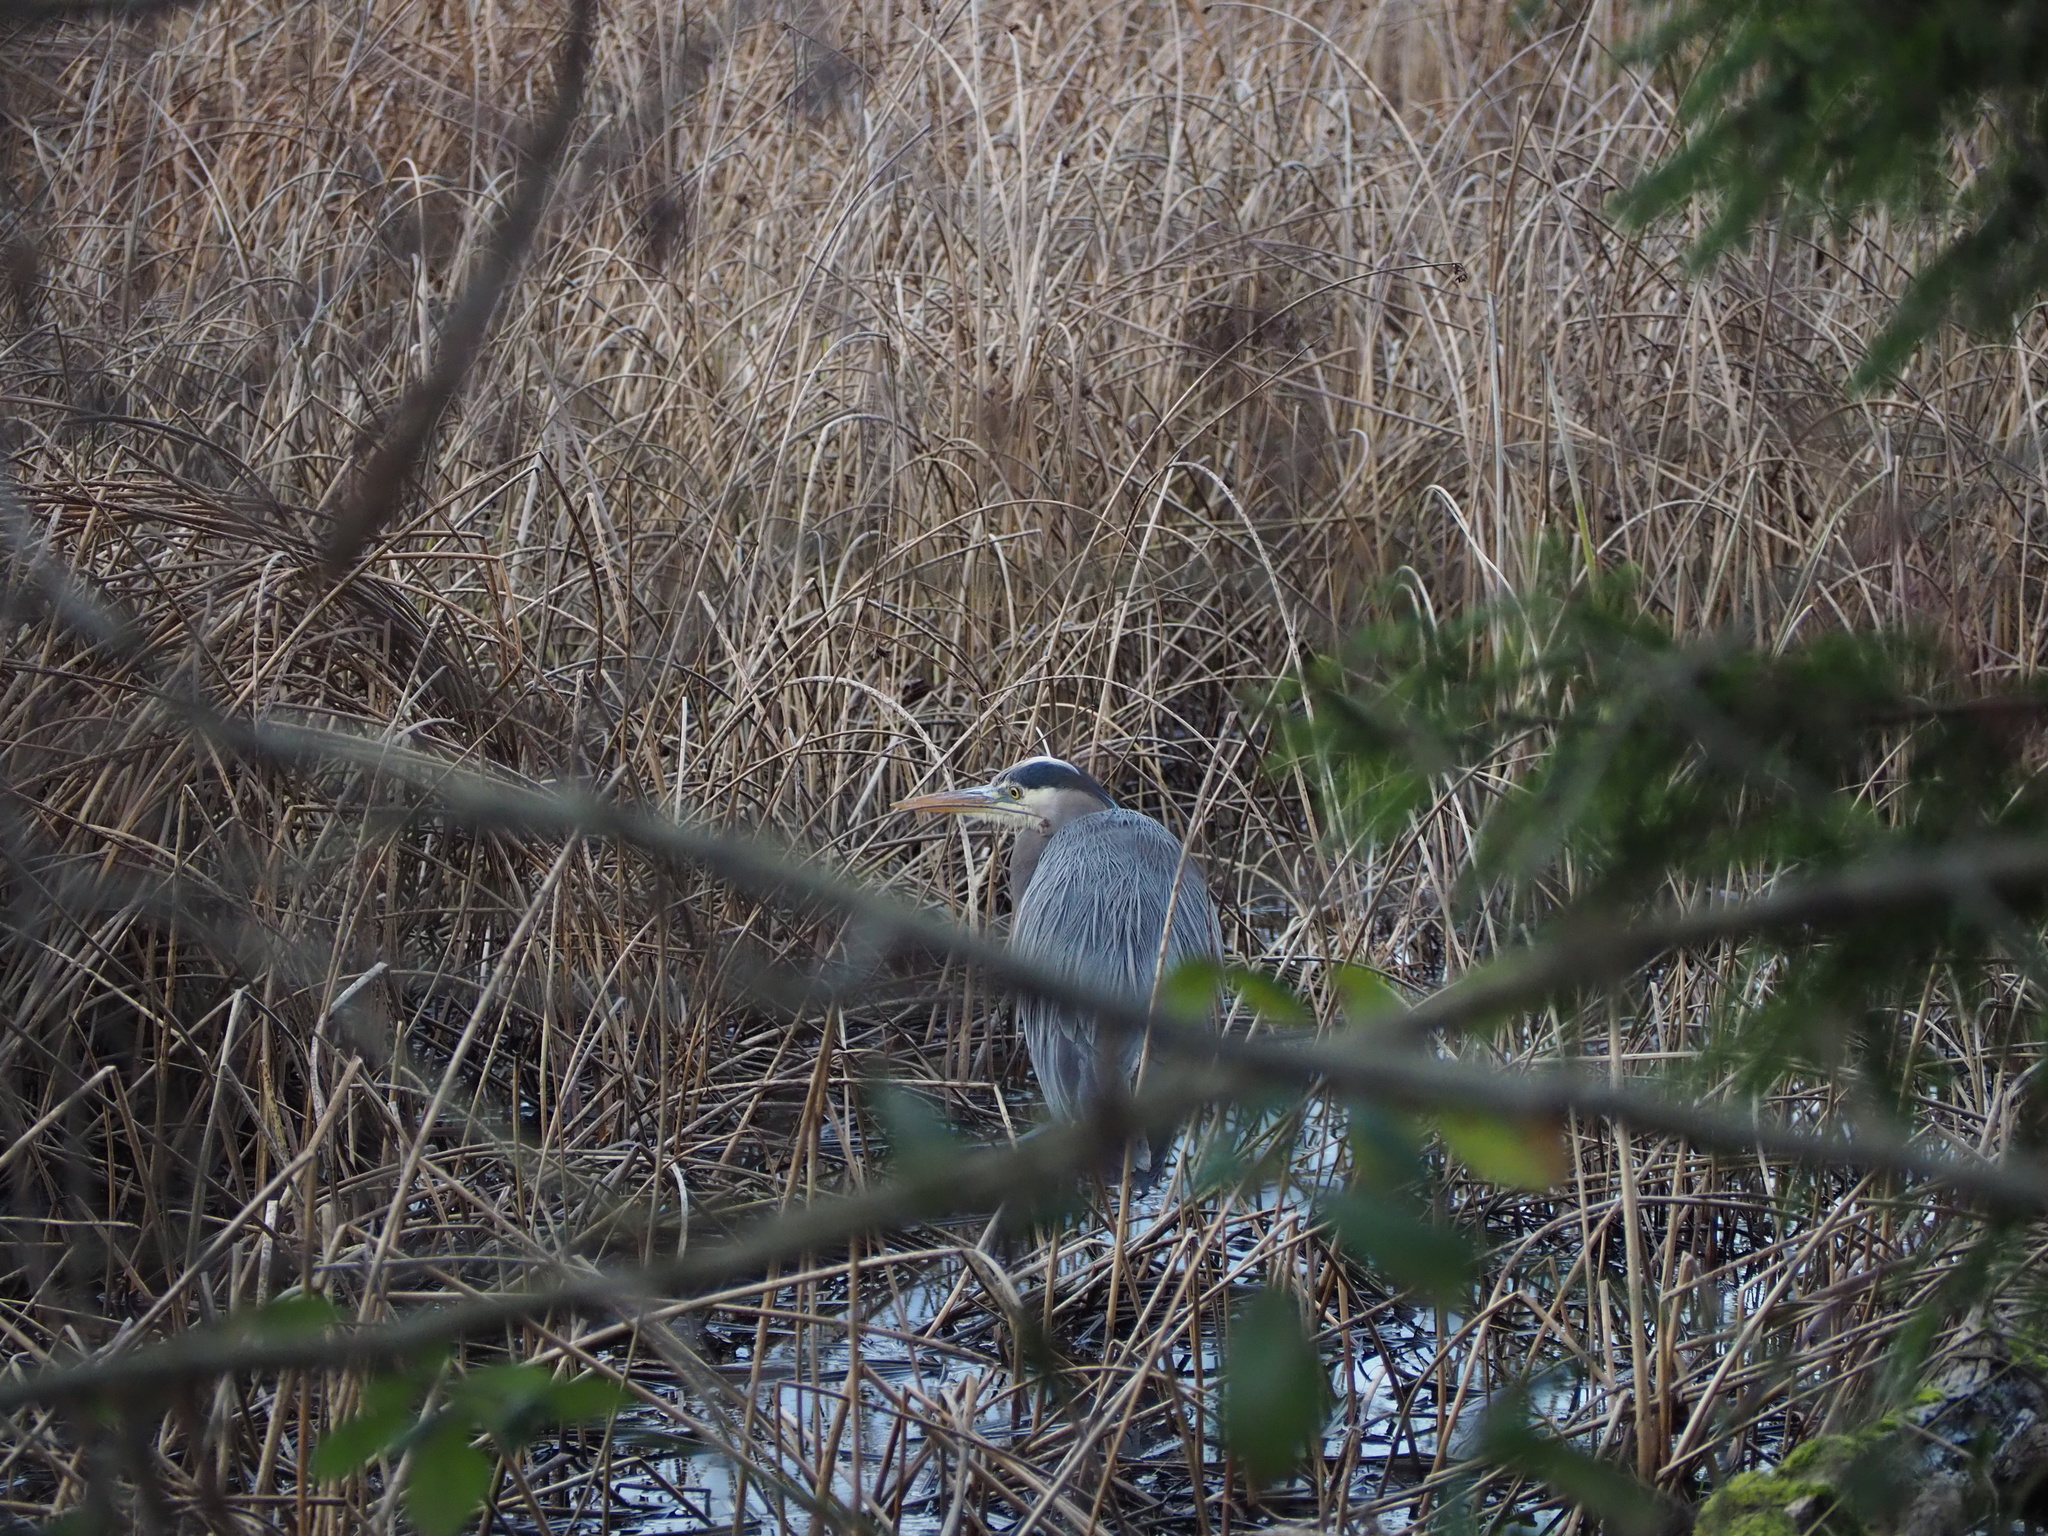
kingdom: Animalia
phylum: Chordata
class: Aves
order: Pelecaniformes
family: Ardeidae
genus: Ardea
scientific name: Ardea herodias
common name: Great blue heron
